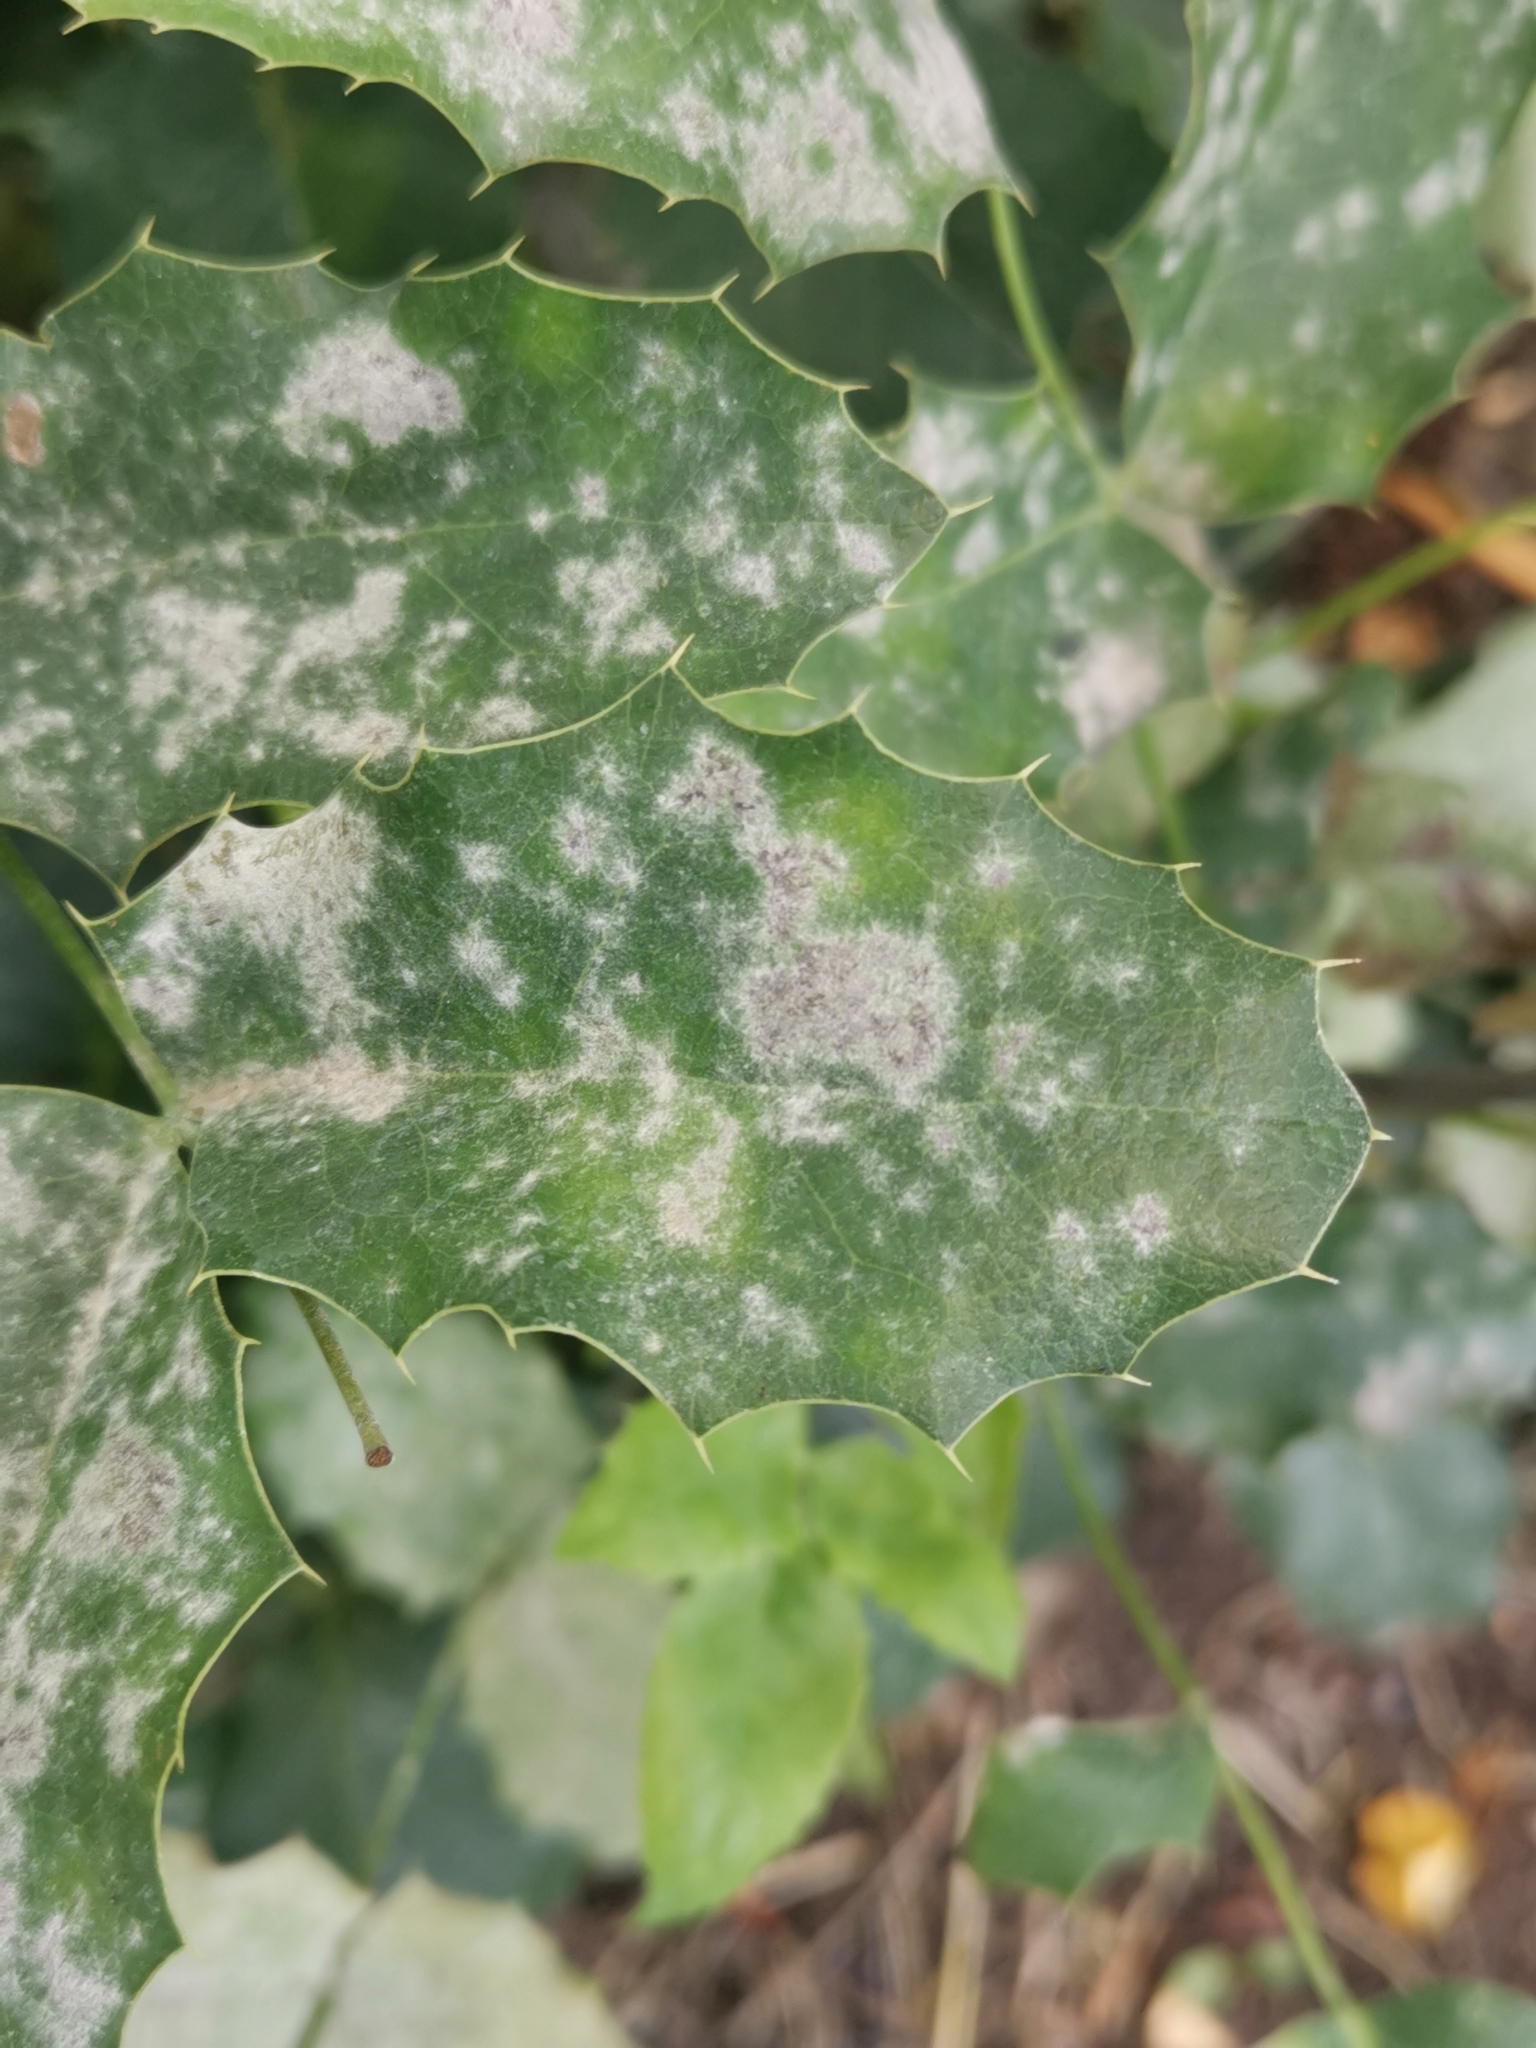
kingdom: Fungi
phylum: Ascomycota
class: Leotiomycetes
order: Helotiales
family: Erysiphaceae
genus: Erysiphe
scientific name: Erysiphe berberidis
